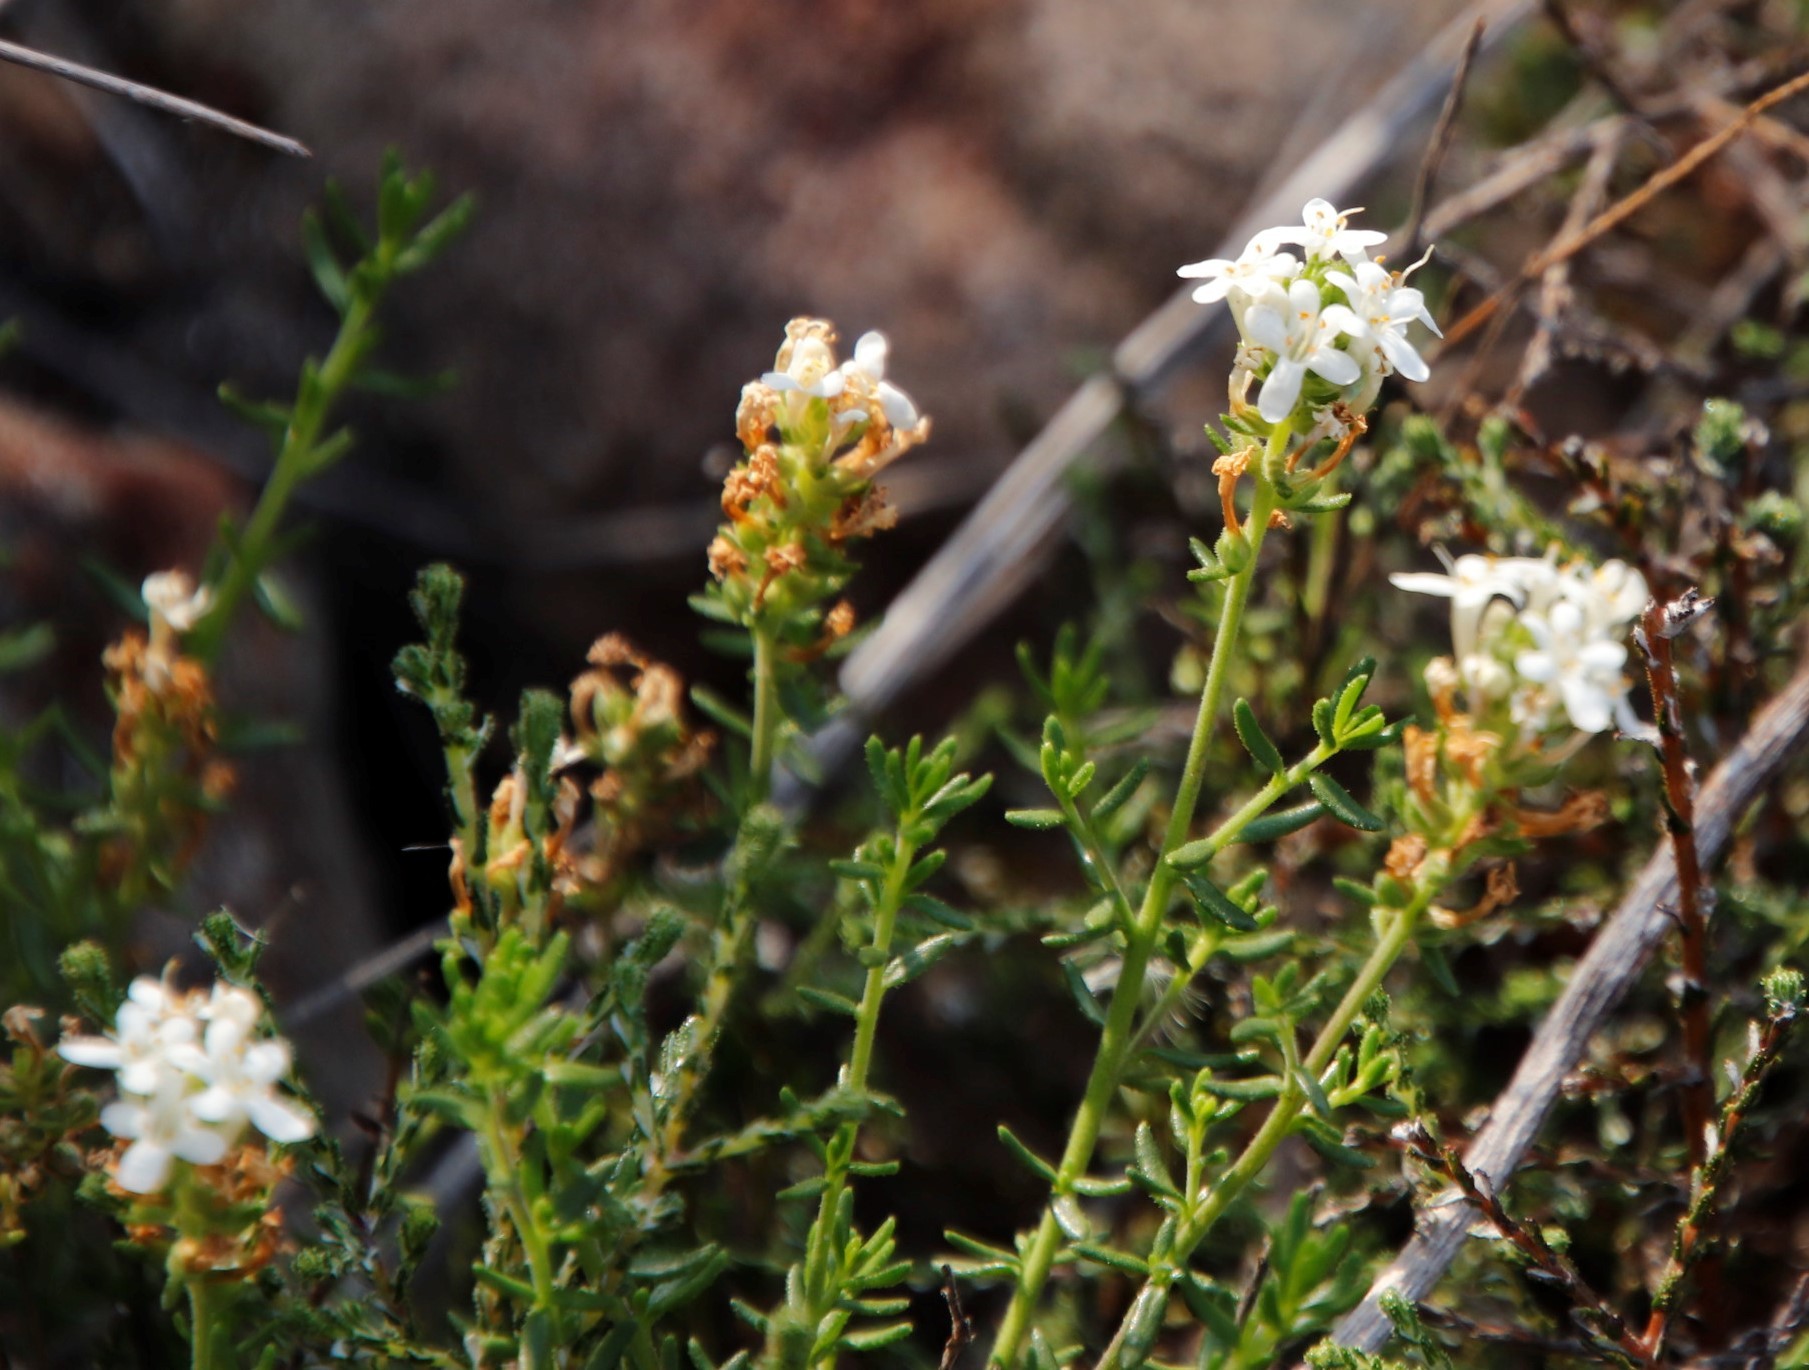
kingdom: Plantae
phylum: Tracheophyta
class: Magnoliopsida
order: Lamiales
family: Scrophulariaceae
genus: Selago
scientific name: Selago levynsiae
